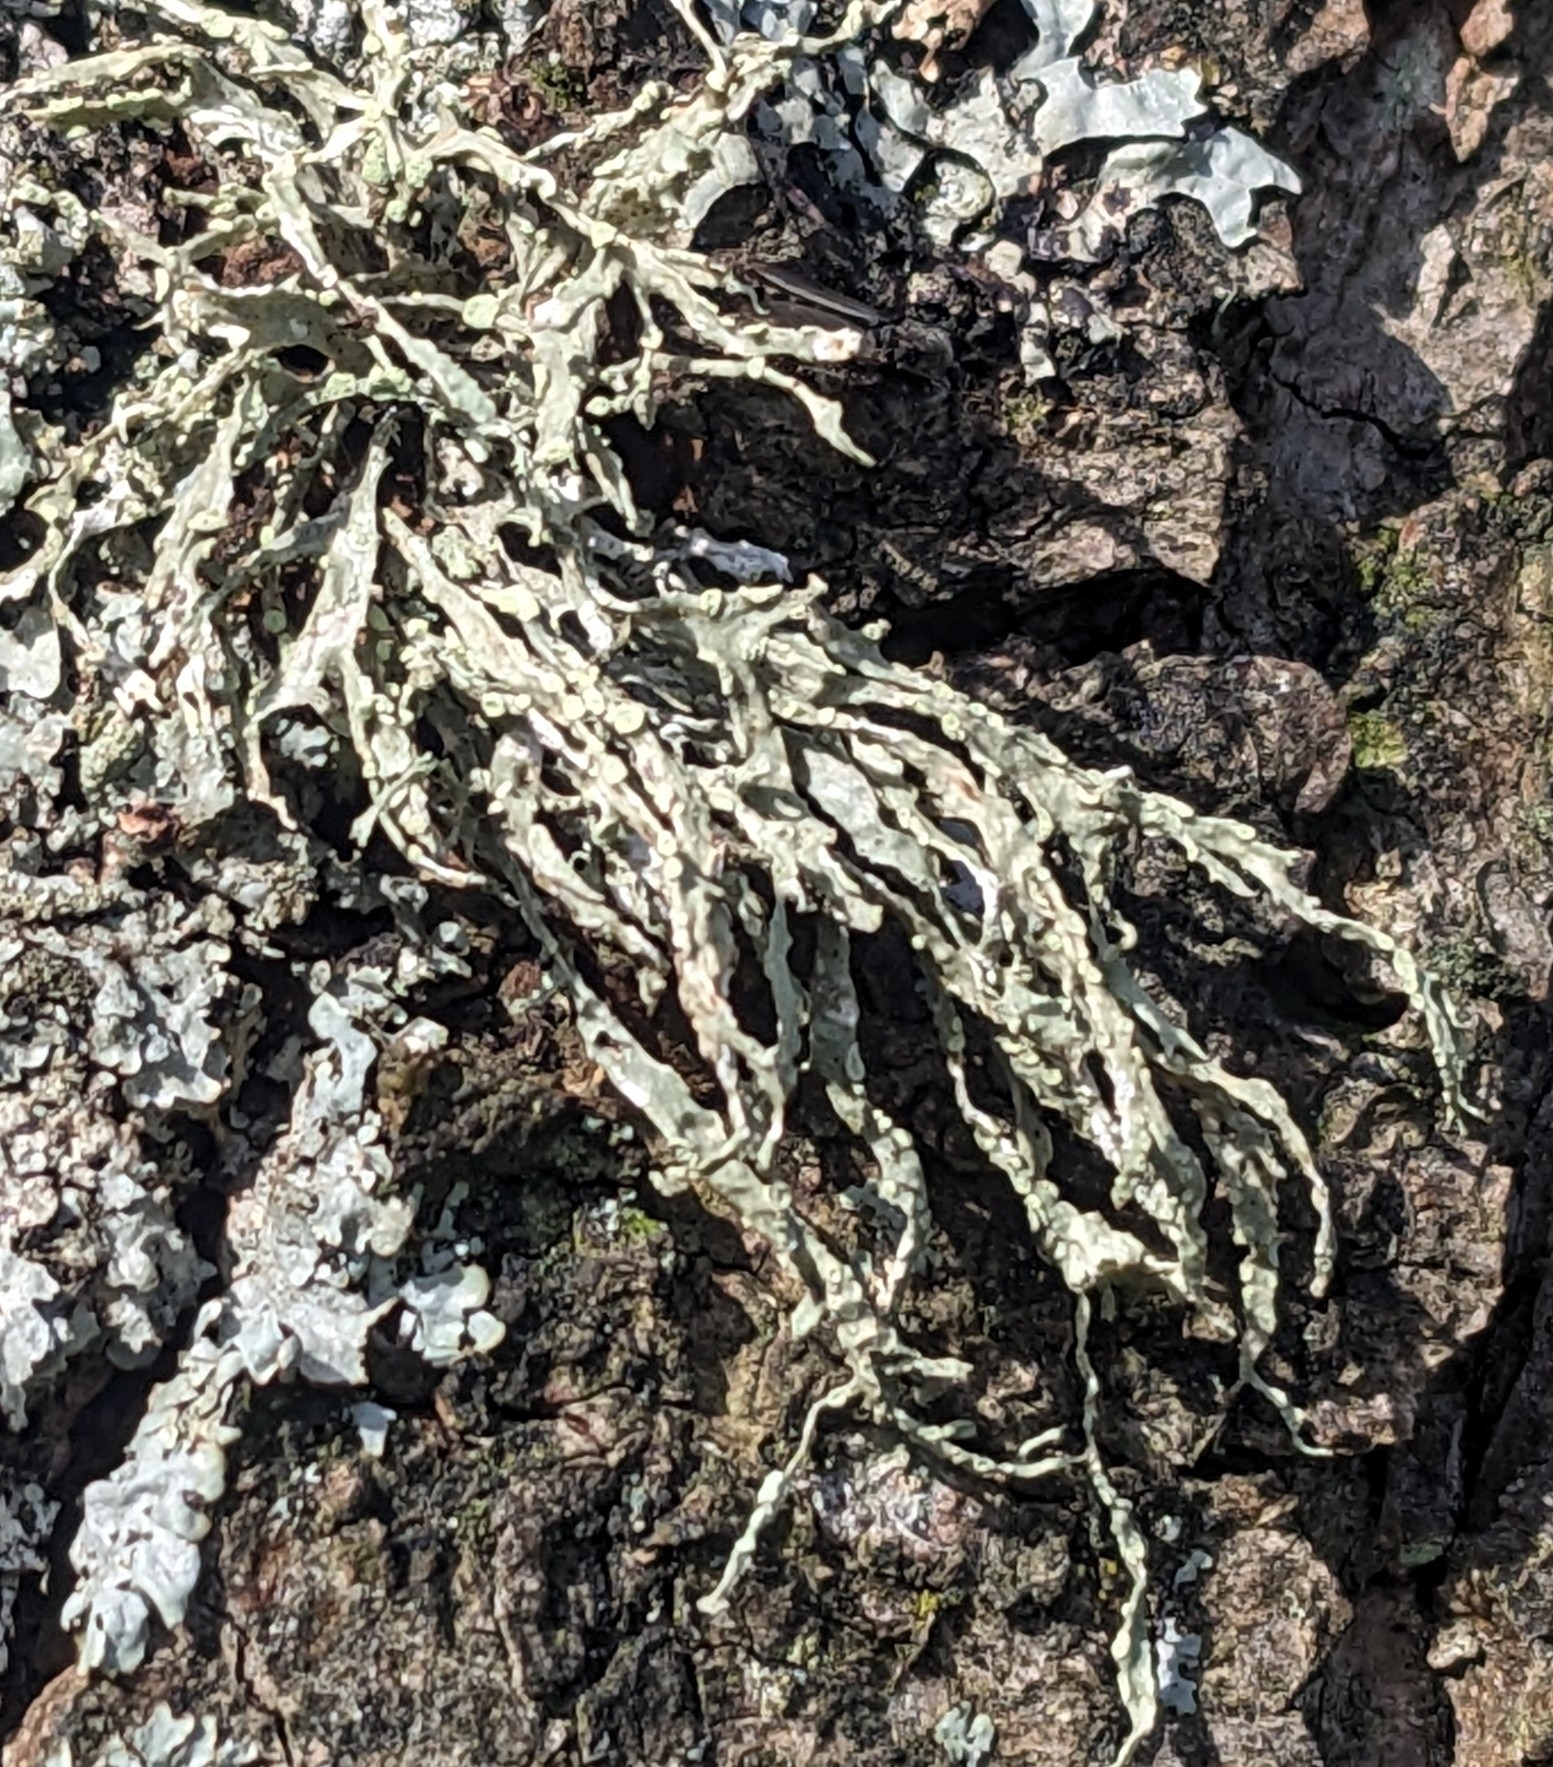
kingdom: Fungi
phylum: Ascomycota
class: Lecanoromycetes
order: Lecanorales
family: Ramalinaceae
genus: Ramalina
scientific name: Ramalina farinacea
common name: Farinose cartilage lichen
